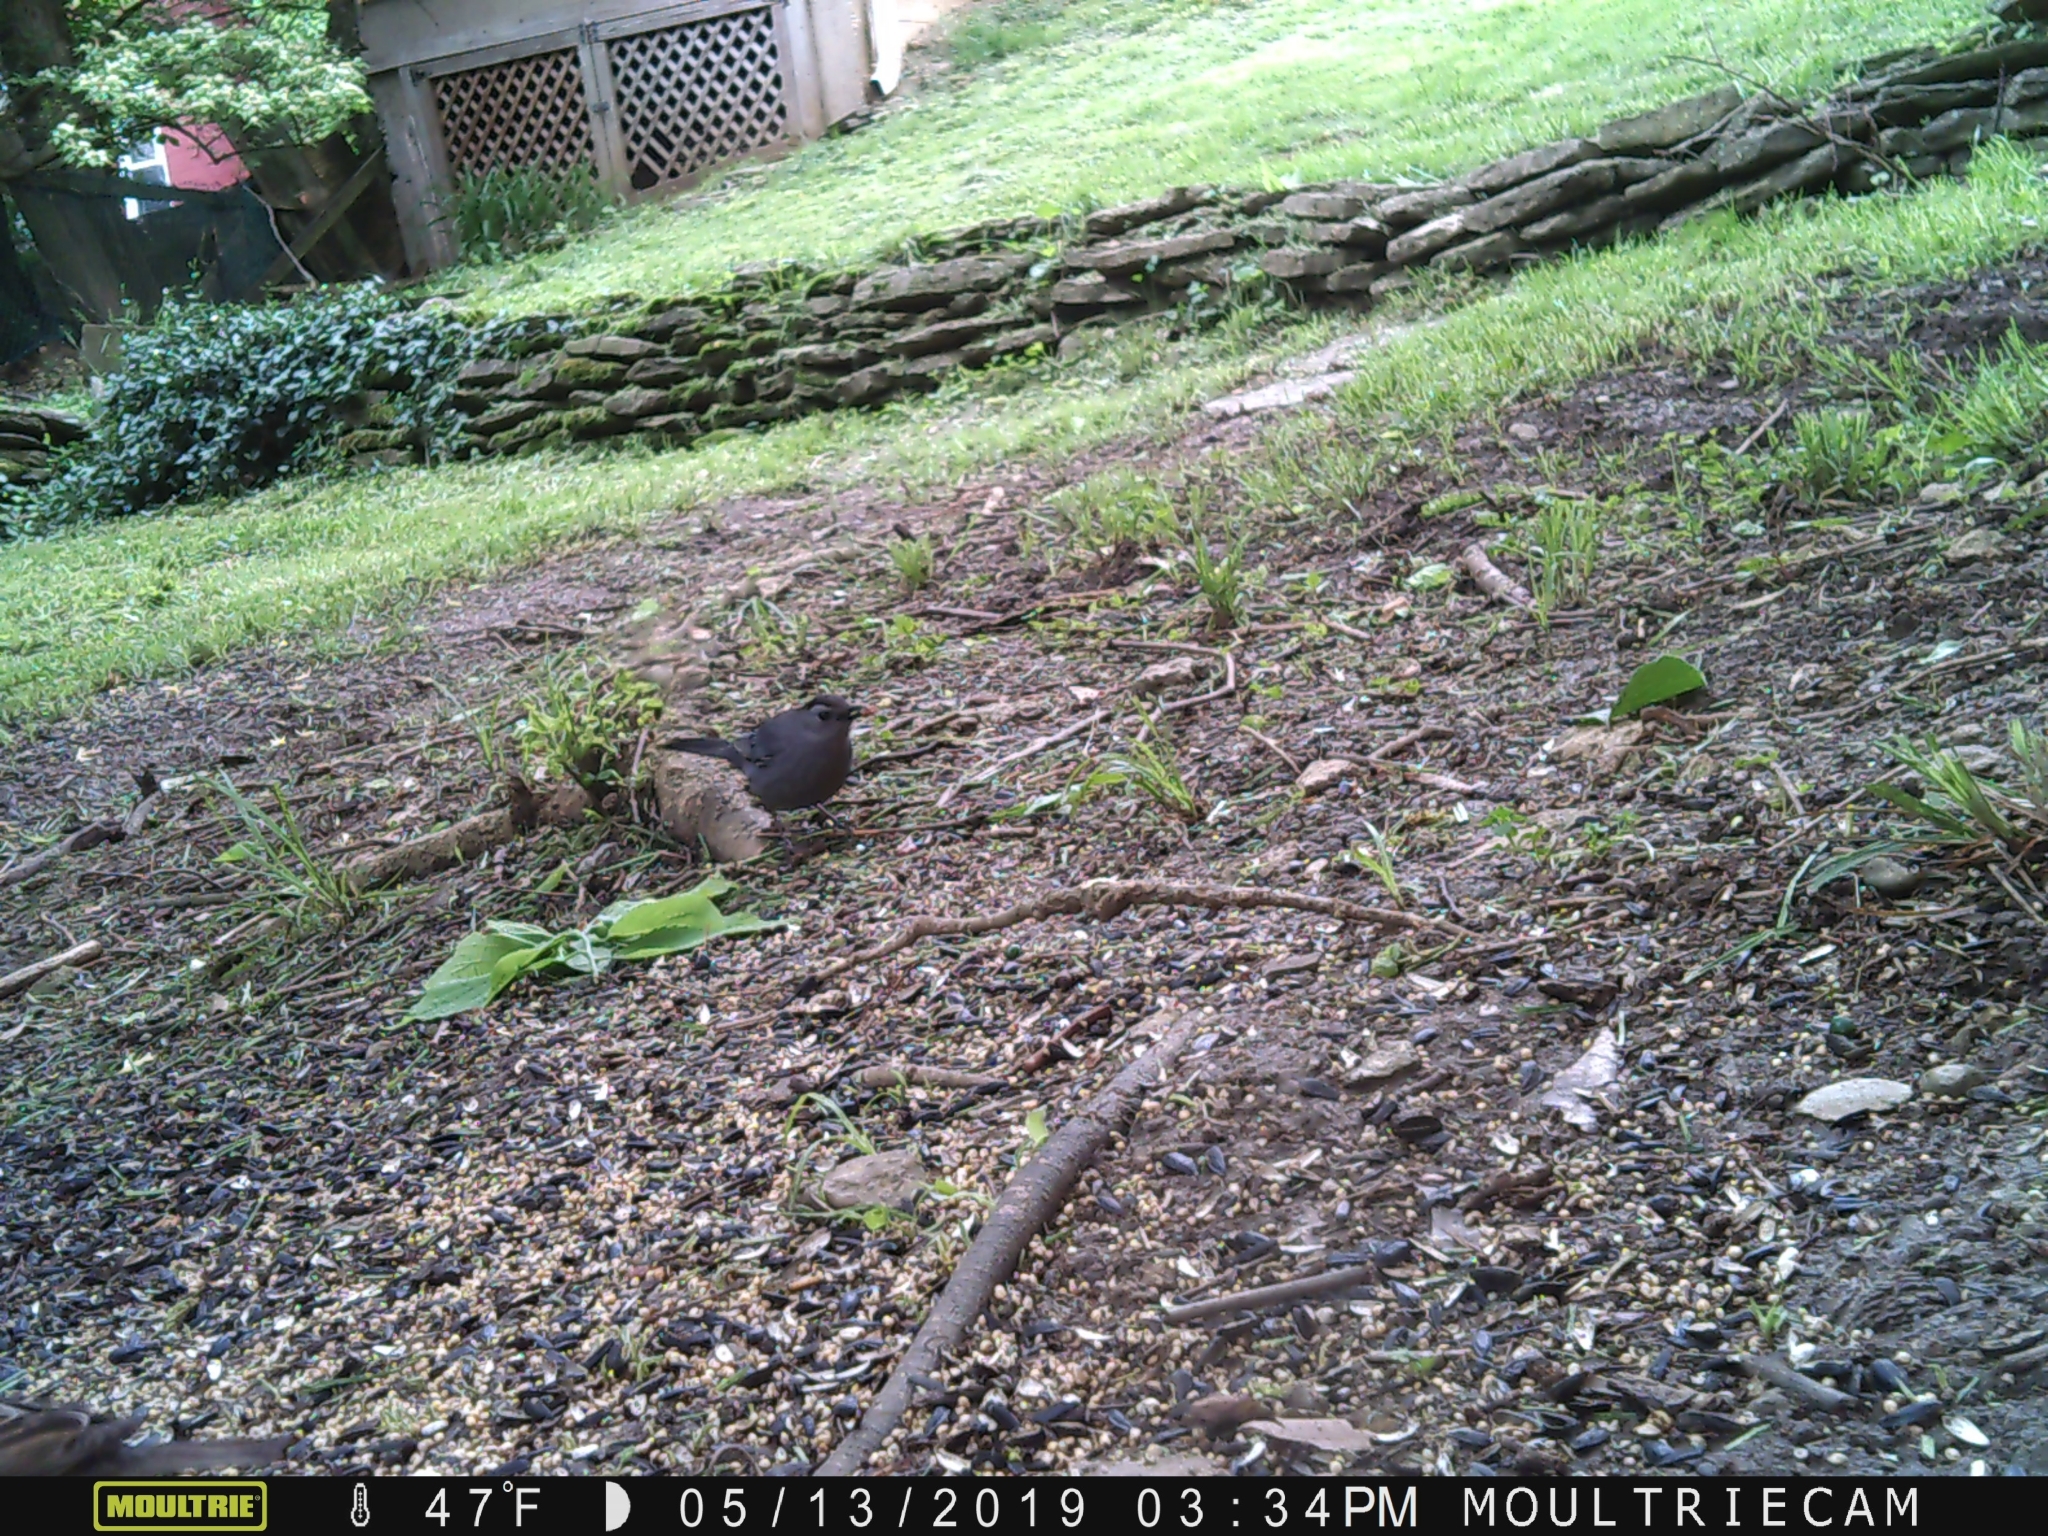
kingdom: Animalia
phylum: Chordata
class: Aves
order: Passeriformes
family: Mimidae
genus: Dumetella
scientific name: Dumetella carolinensis
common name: Gray catbird
